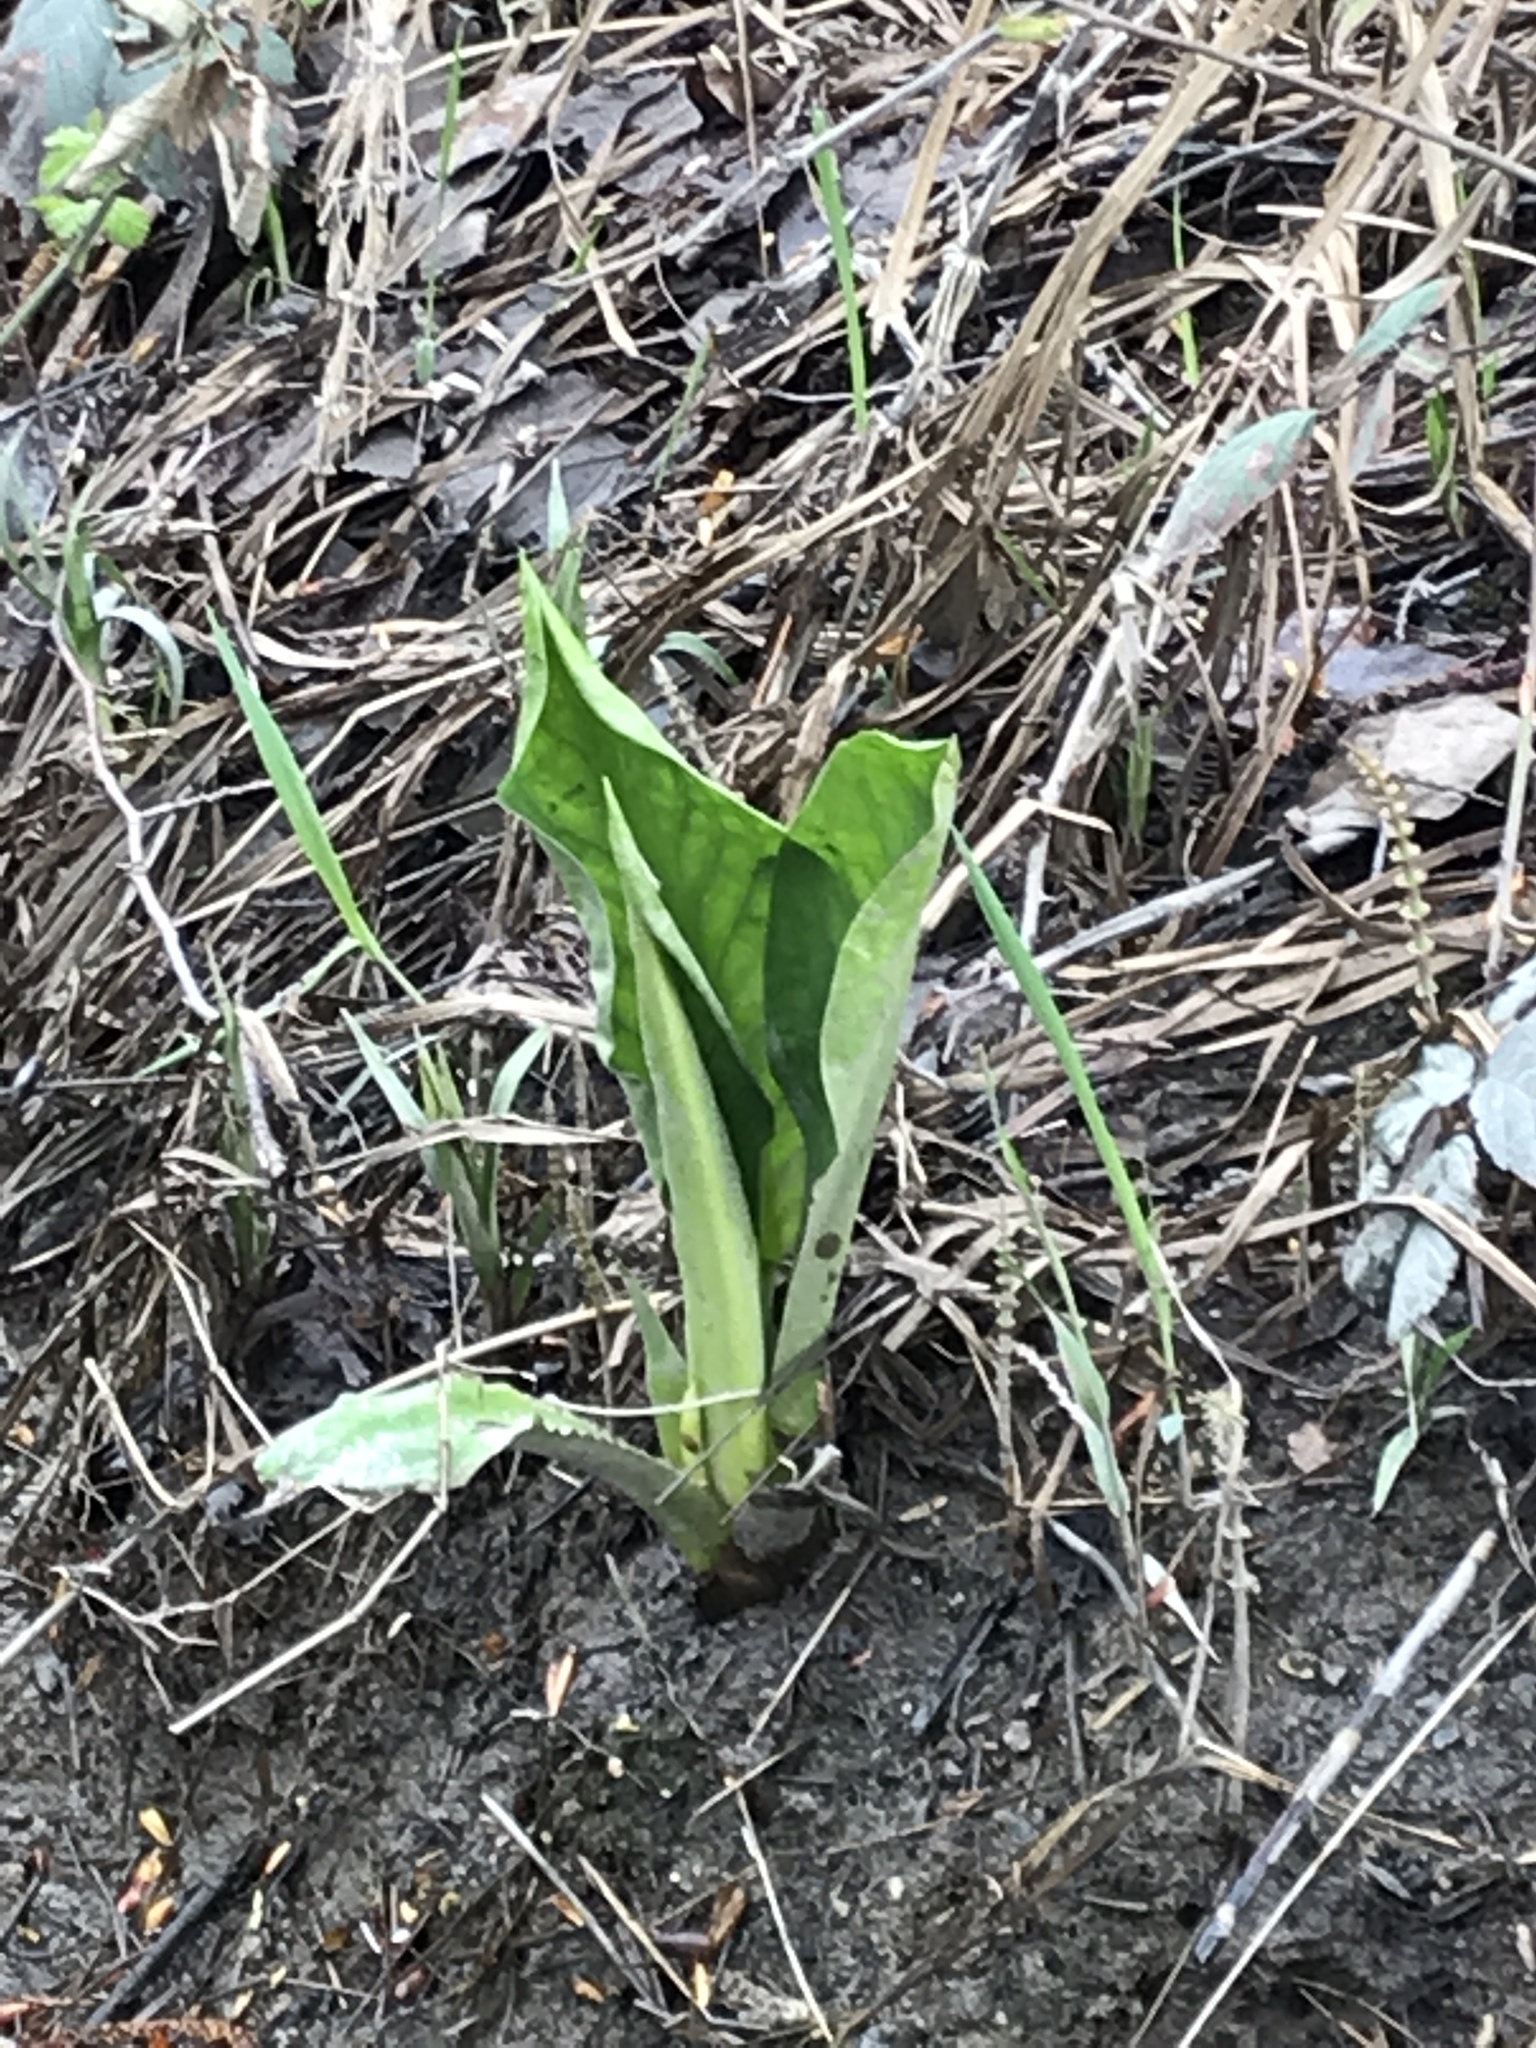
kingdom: Plantae
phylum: Tracheophyta
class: Liliopsida
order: Alismatales
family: Araceae
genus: Lysichiton
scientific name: Lysichiton americanus
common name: American skunk cabbage
